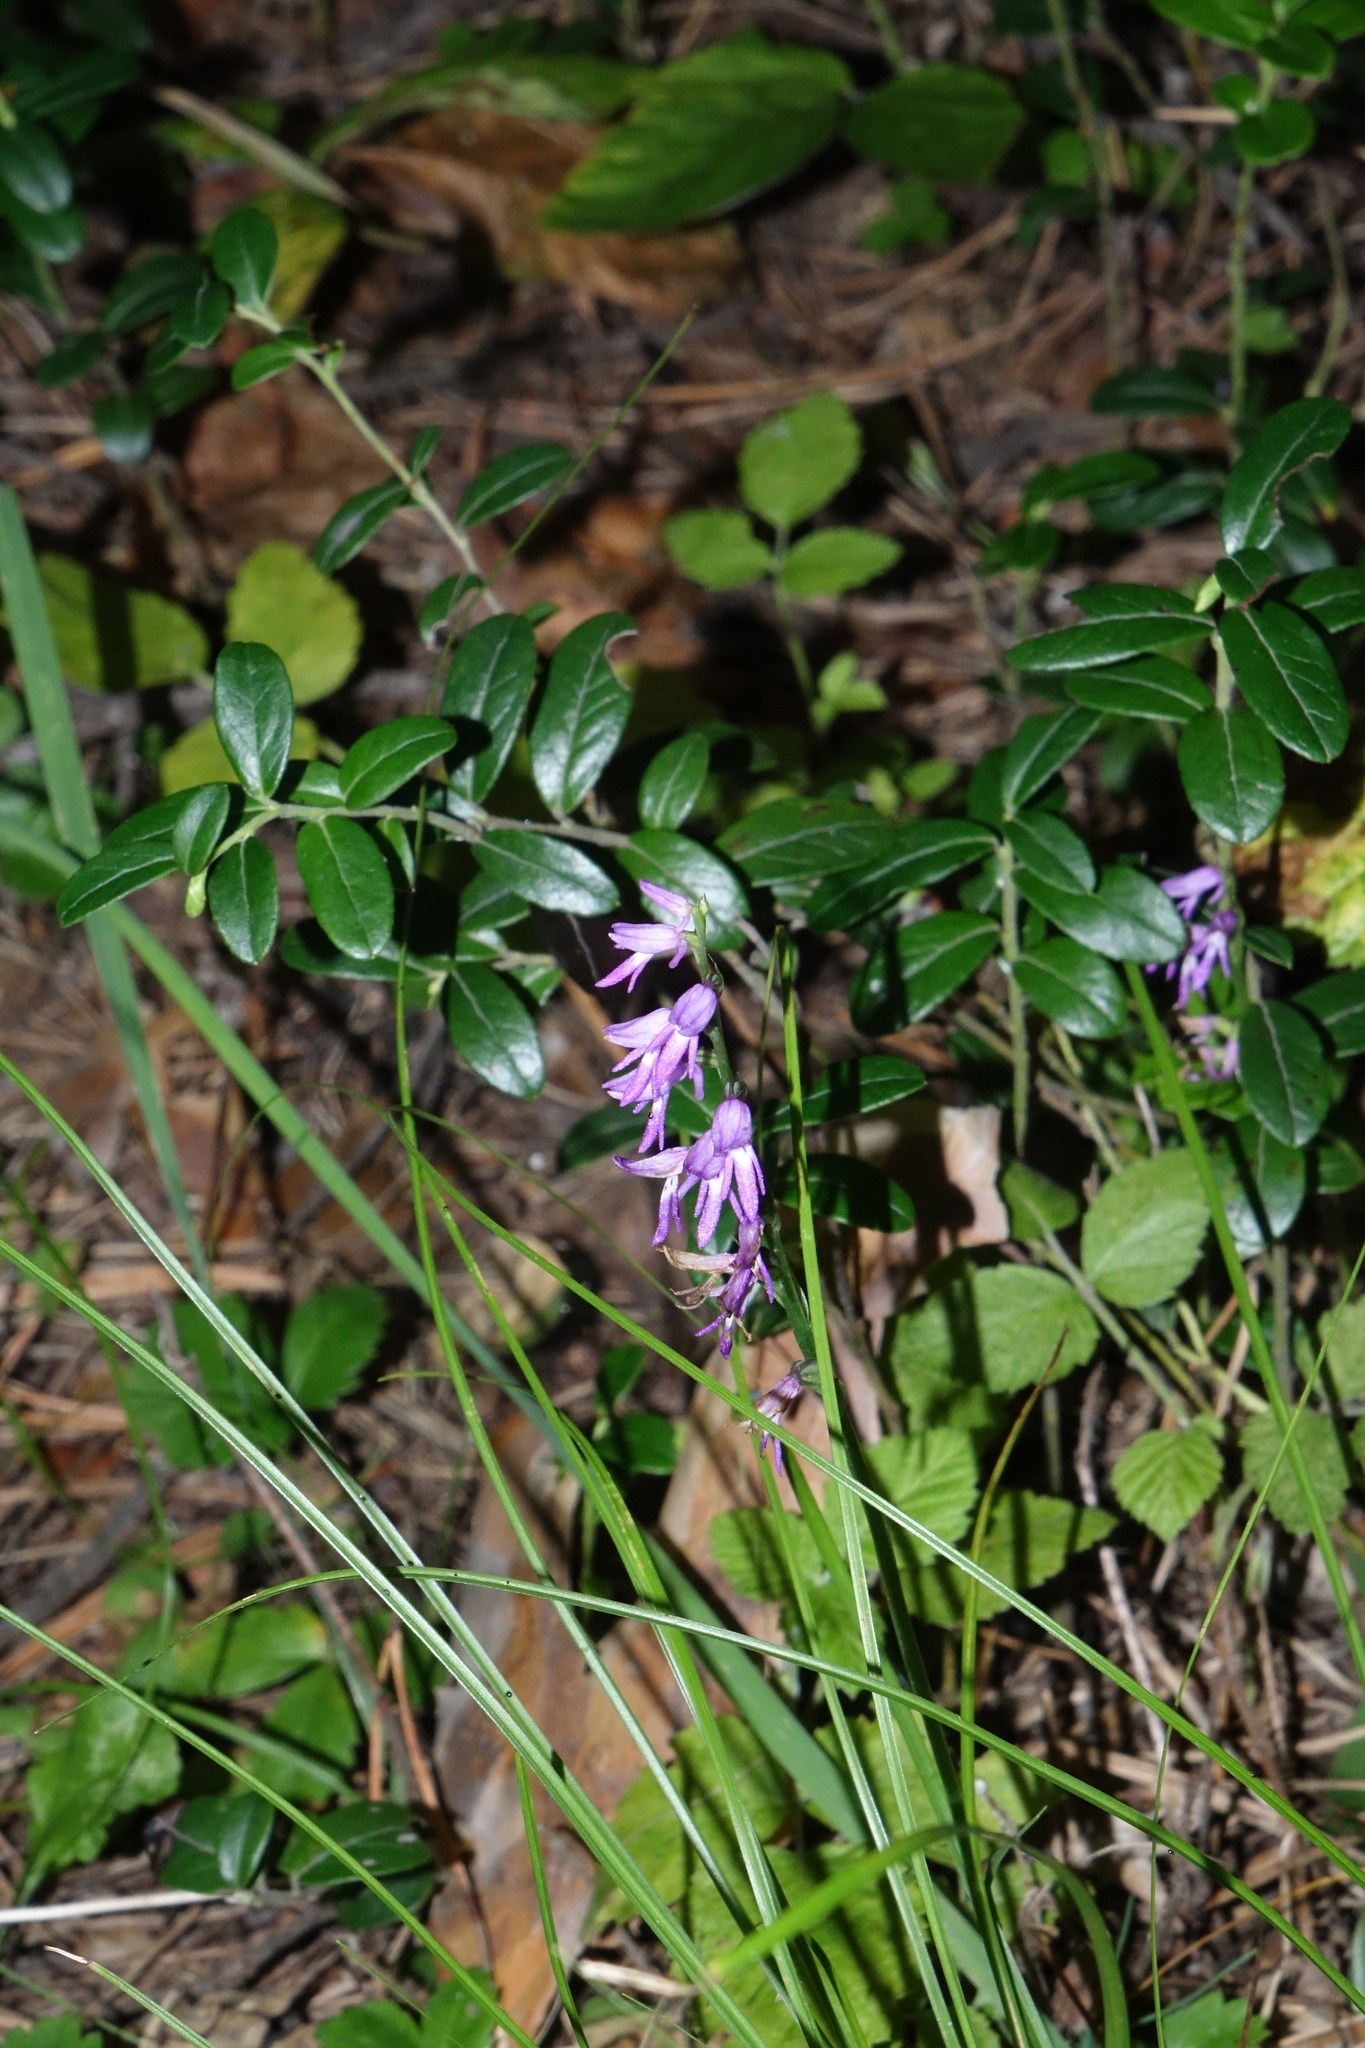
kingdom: Plantae
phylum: Tracheophyta
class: Liliopsida
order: Asparagales
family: Orchidaceae
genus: Hemipilia
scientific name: Hemipilia cucullata
